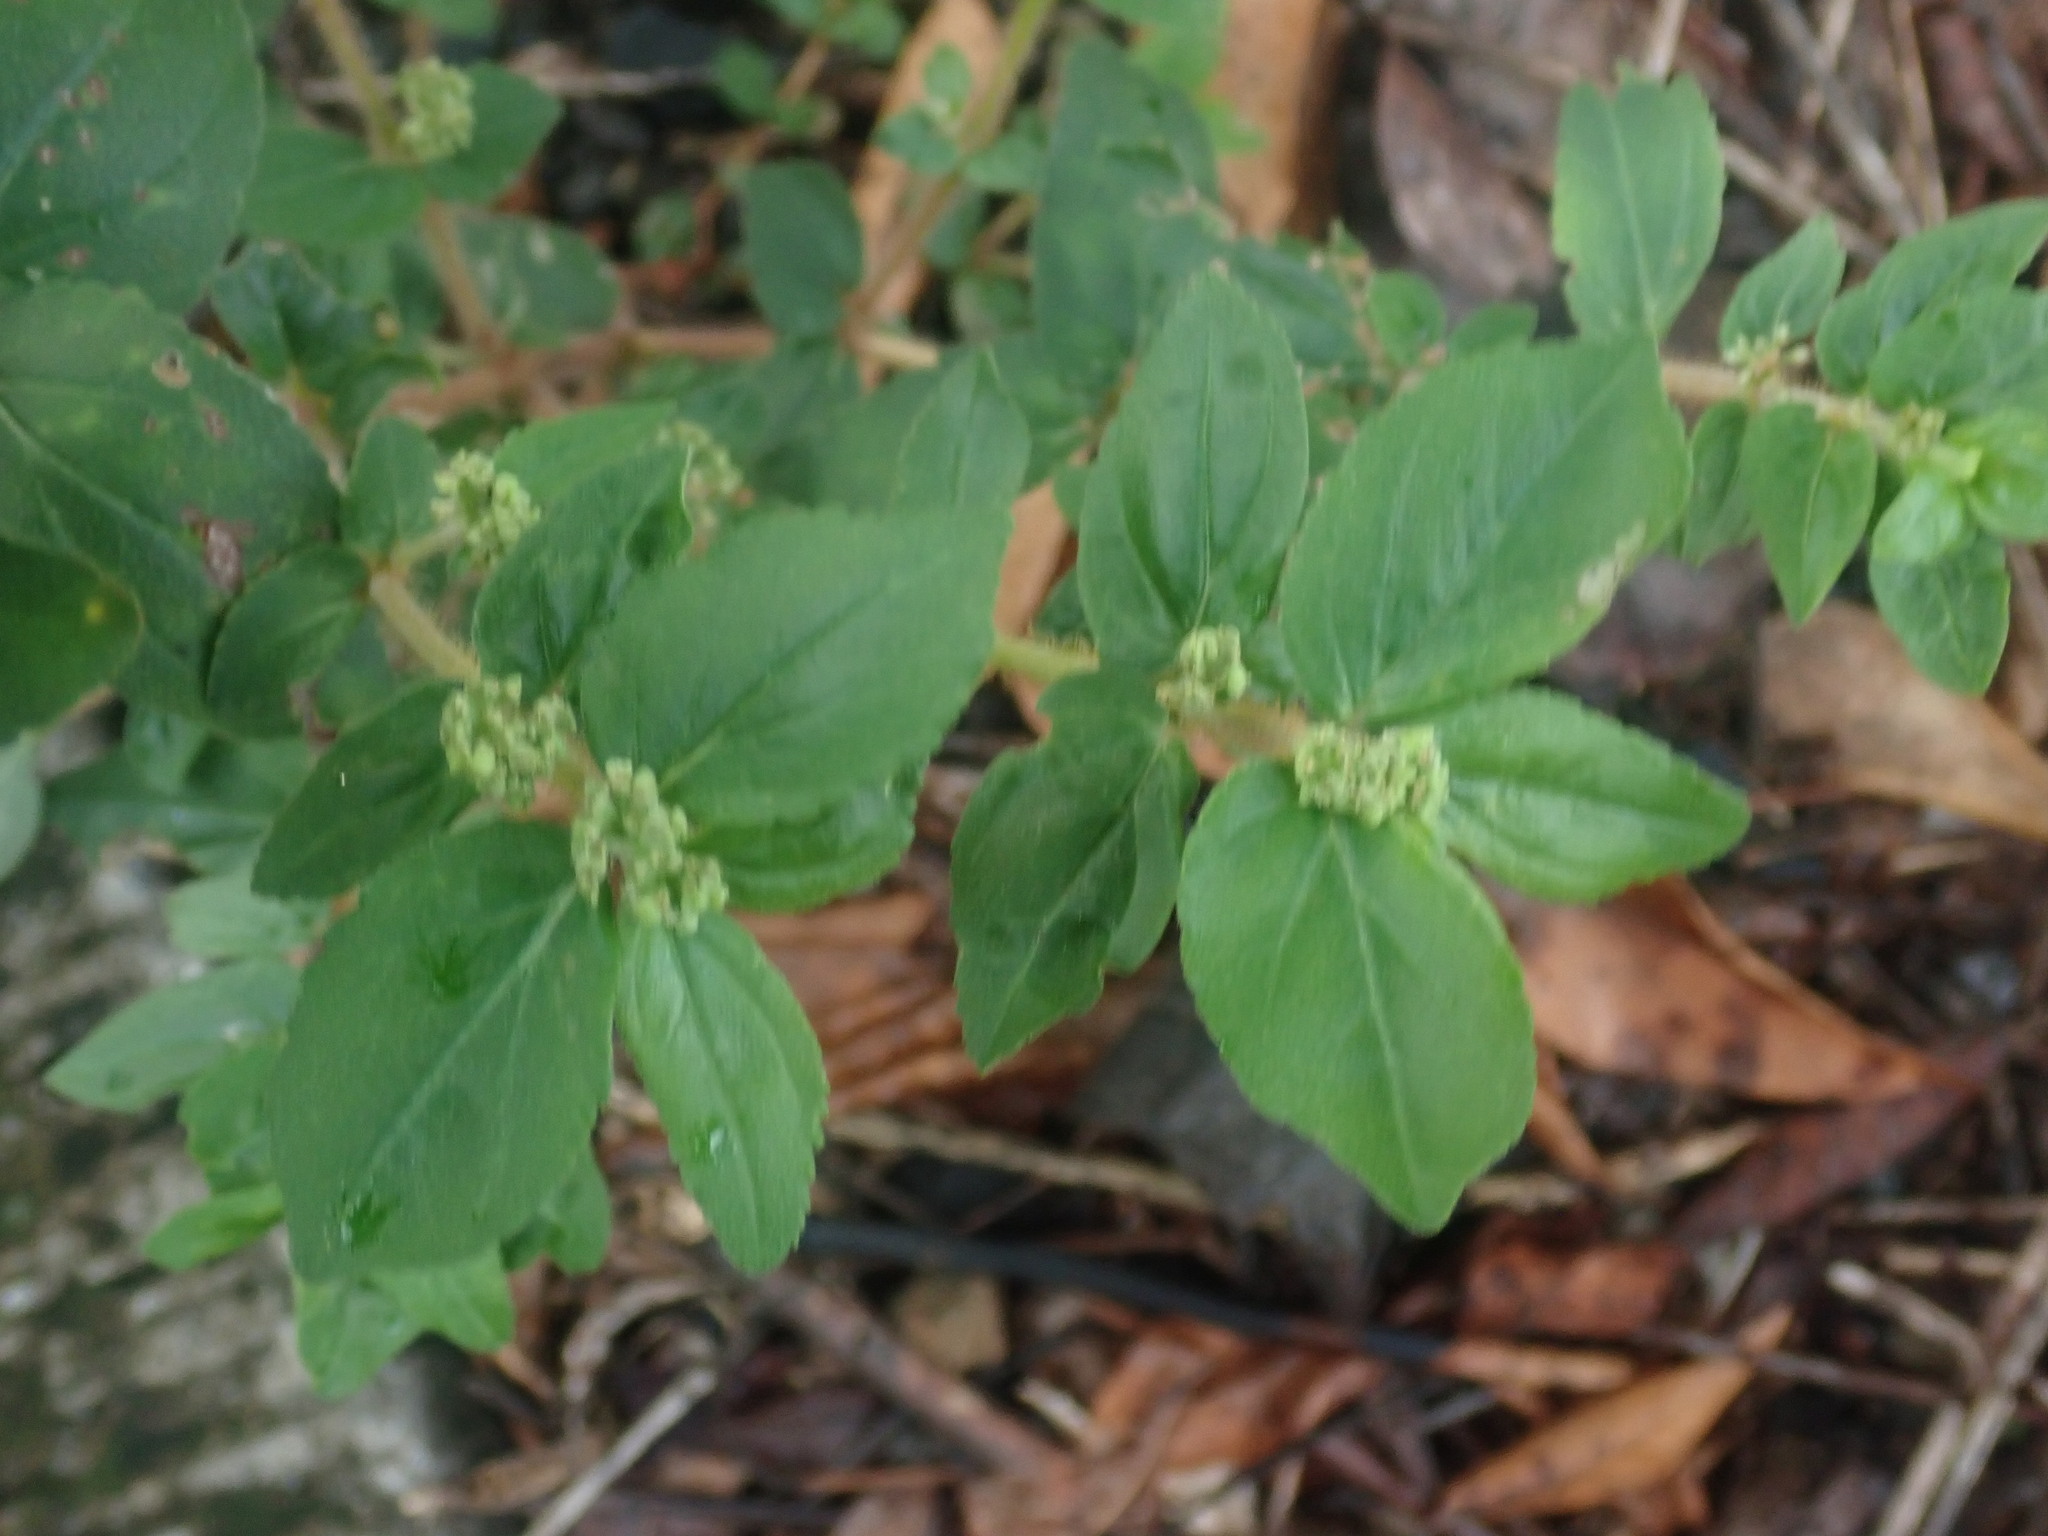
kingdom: Plantae
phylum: Tracheophyta
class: Magnoliopsida
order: Malpighiales
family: Euphorbiaceae
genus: Euphorbia
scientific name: Euphorbia hirta
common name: Pillpod sandmat
